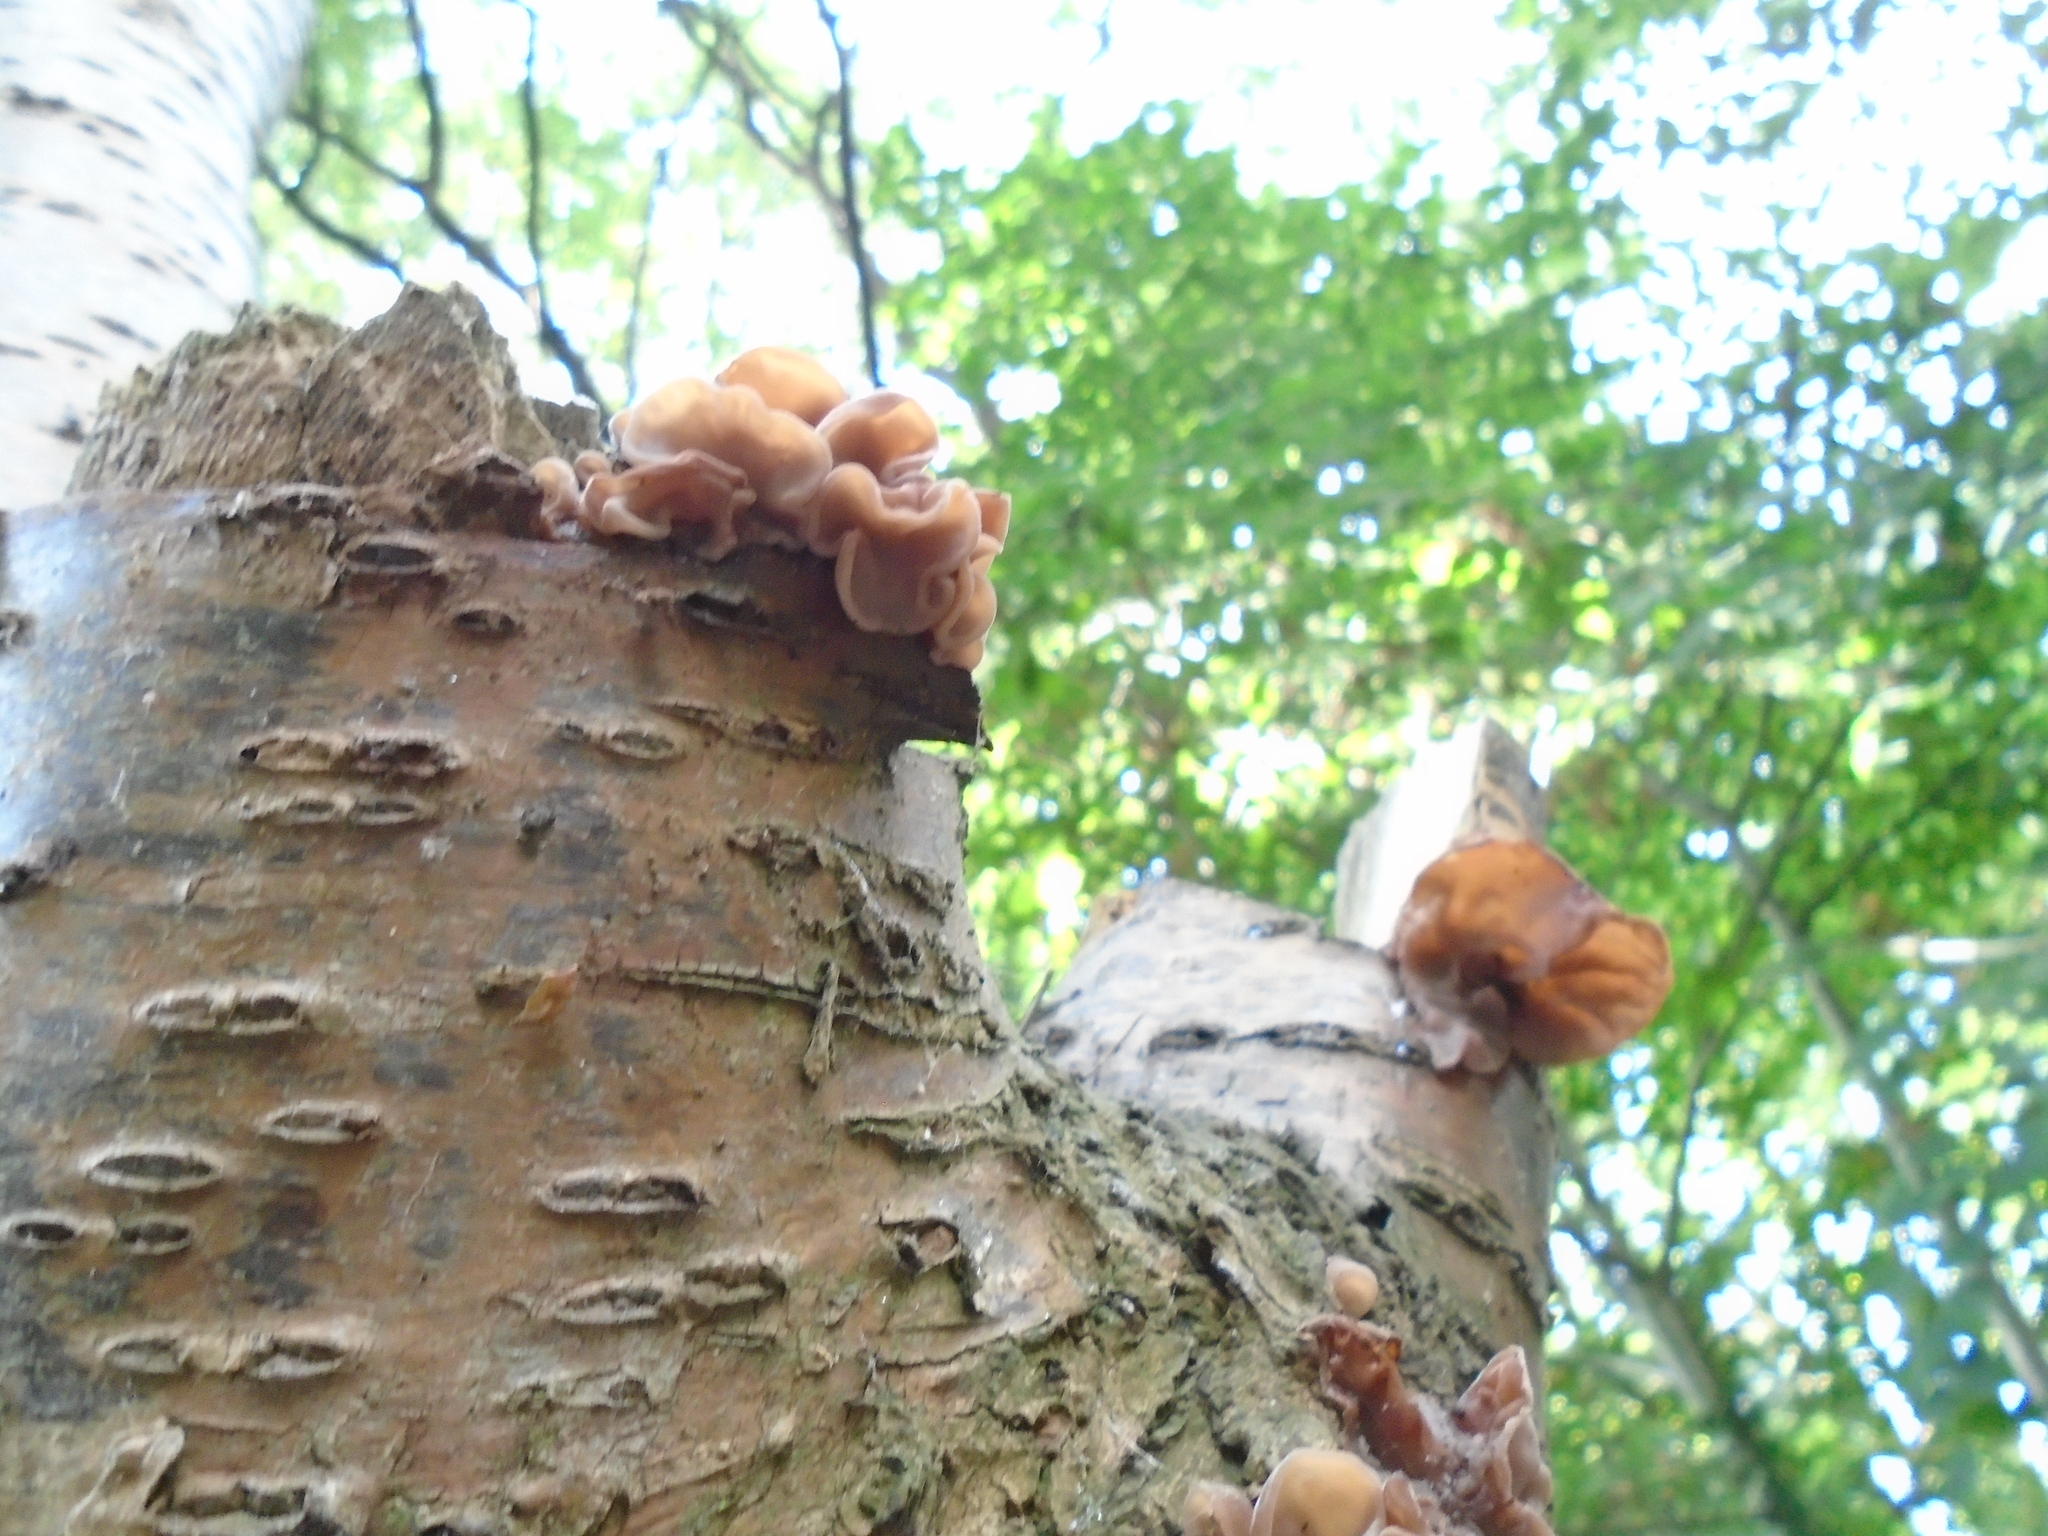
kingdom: Fungi
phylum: Basidiomycota
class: Agaricomycetes
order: Auriculariales
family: Auriculariaceae
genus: Auricularia
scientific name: Auricularia auricula-judae
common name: Jelly ear
